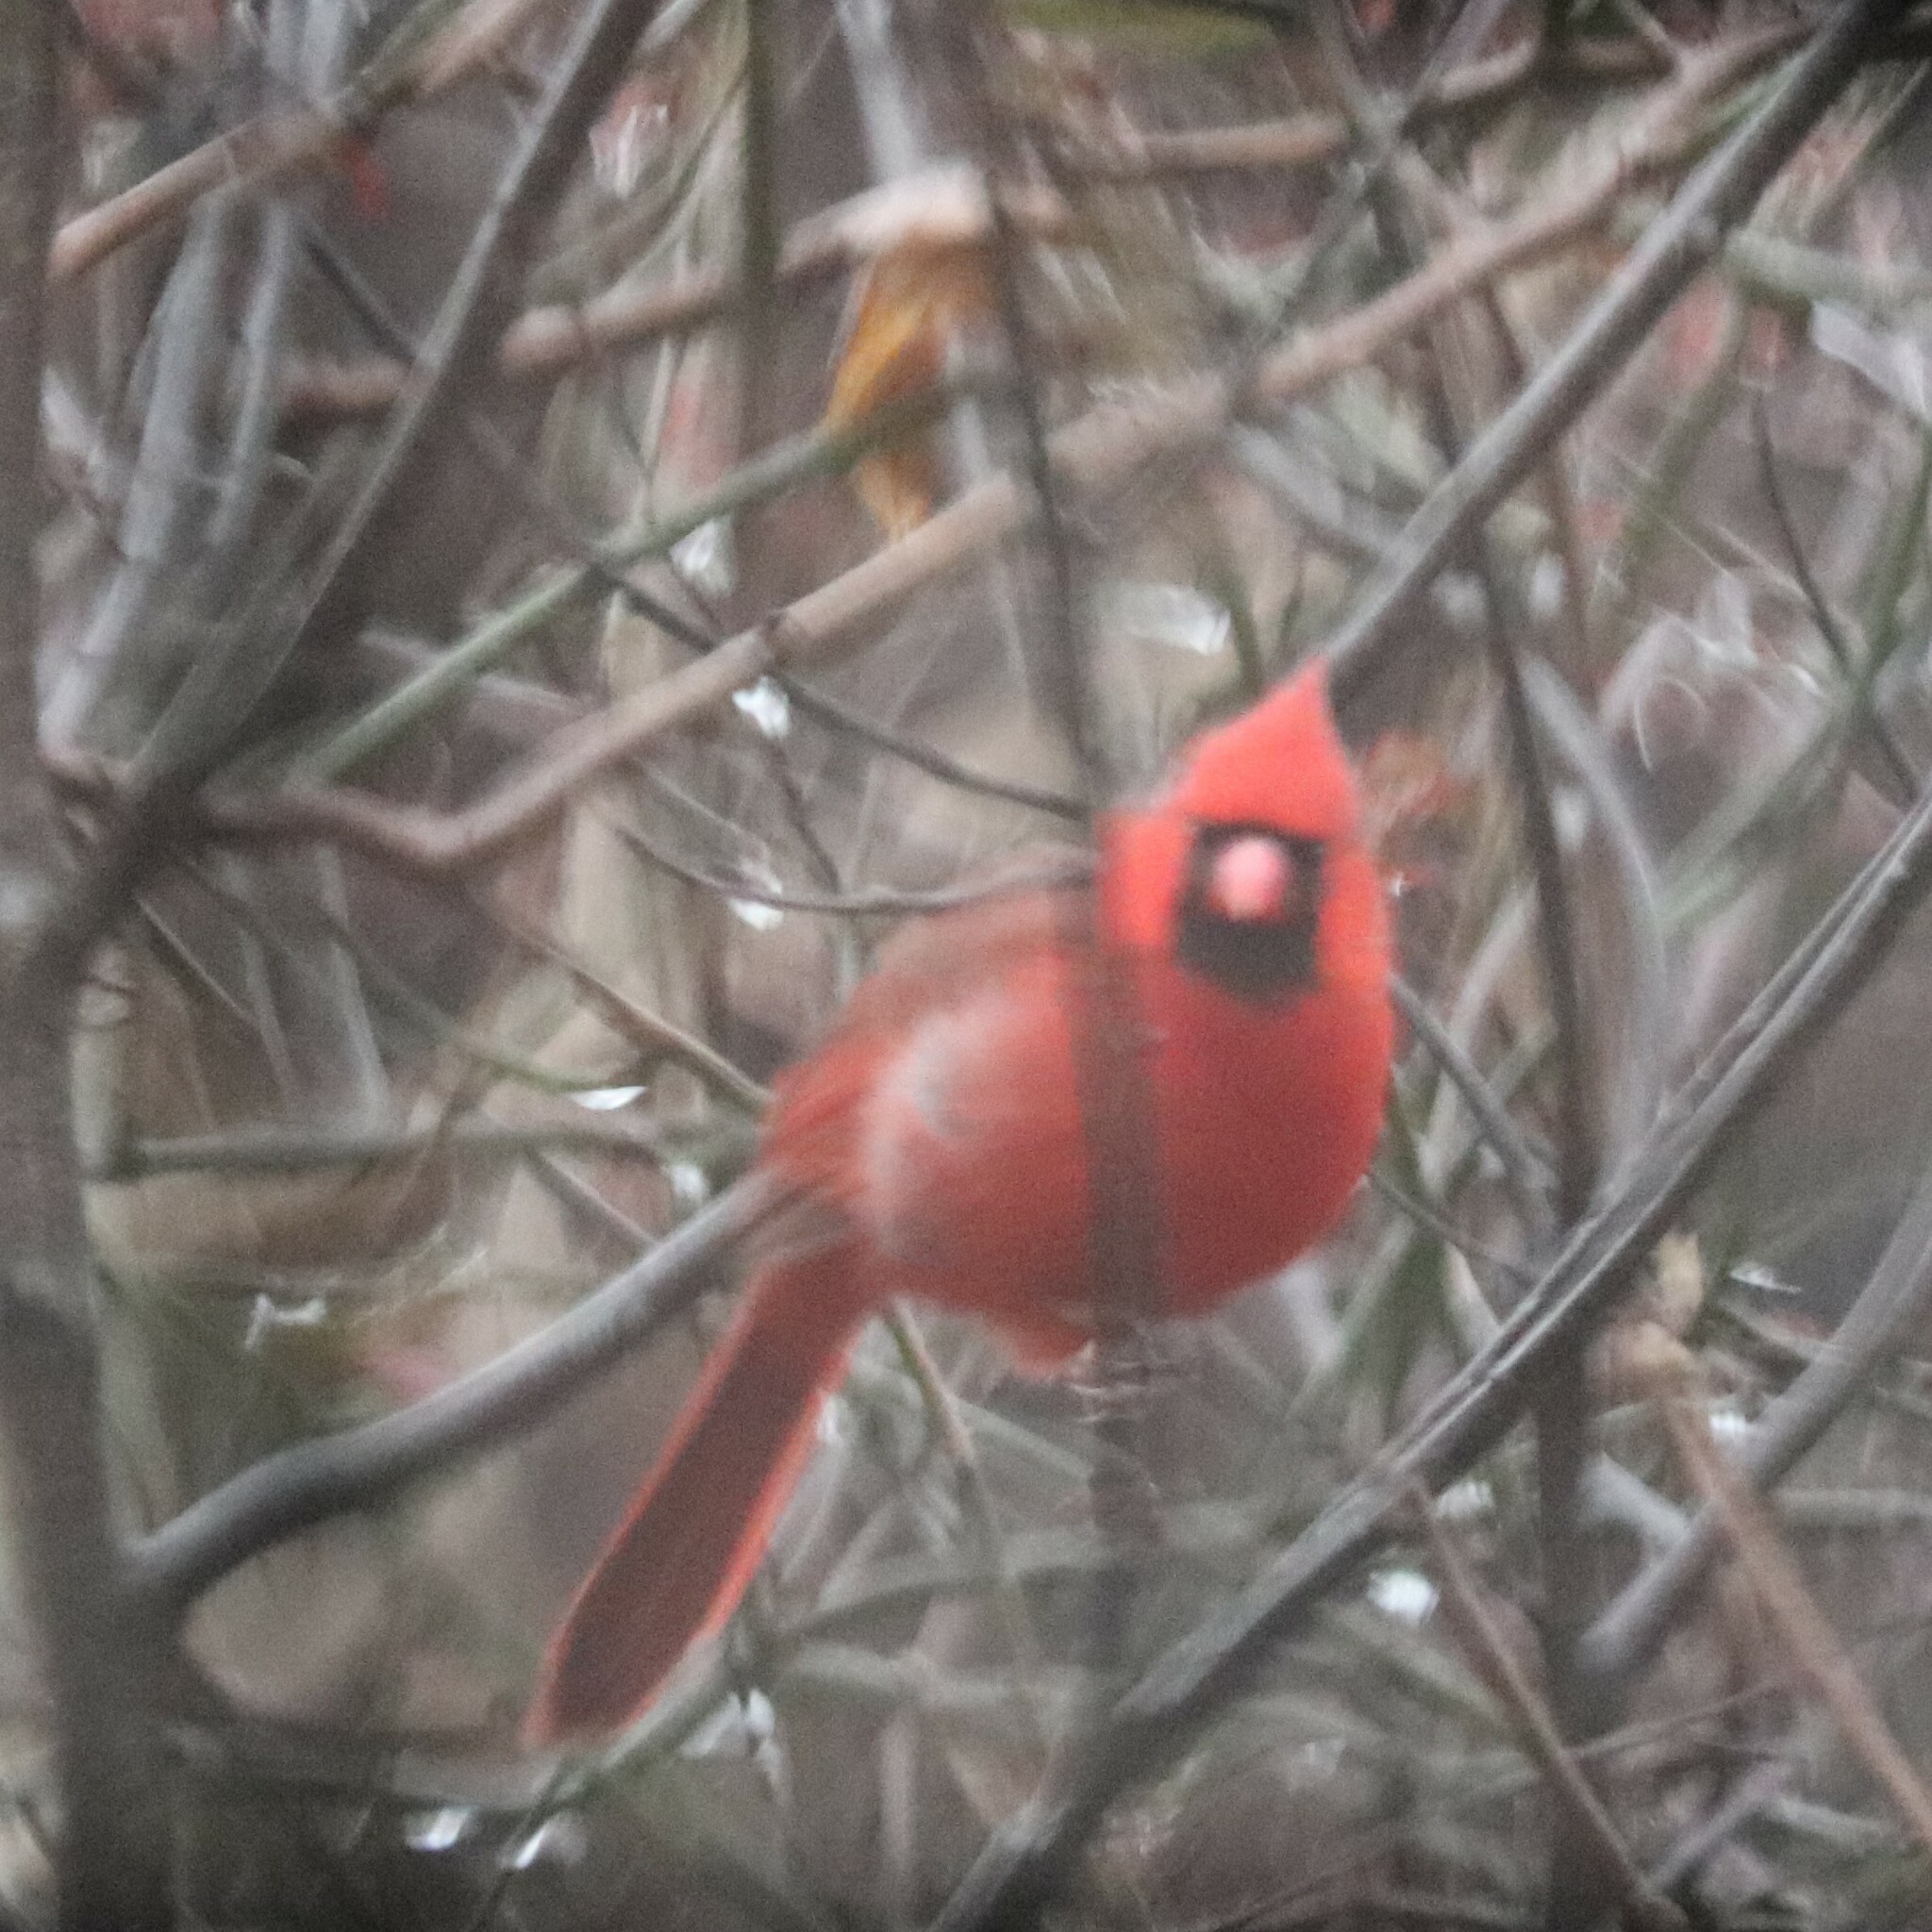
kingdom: Animalia
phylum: Chordata
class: Aves
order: Passeriformes
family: Cardinalidae
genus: Cardinalis
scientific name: Cardinalis cardinalis
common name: Northern cardinal
